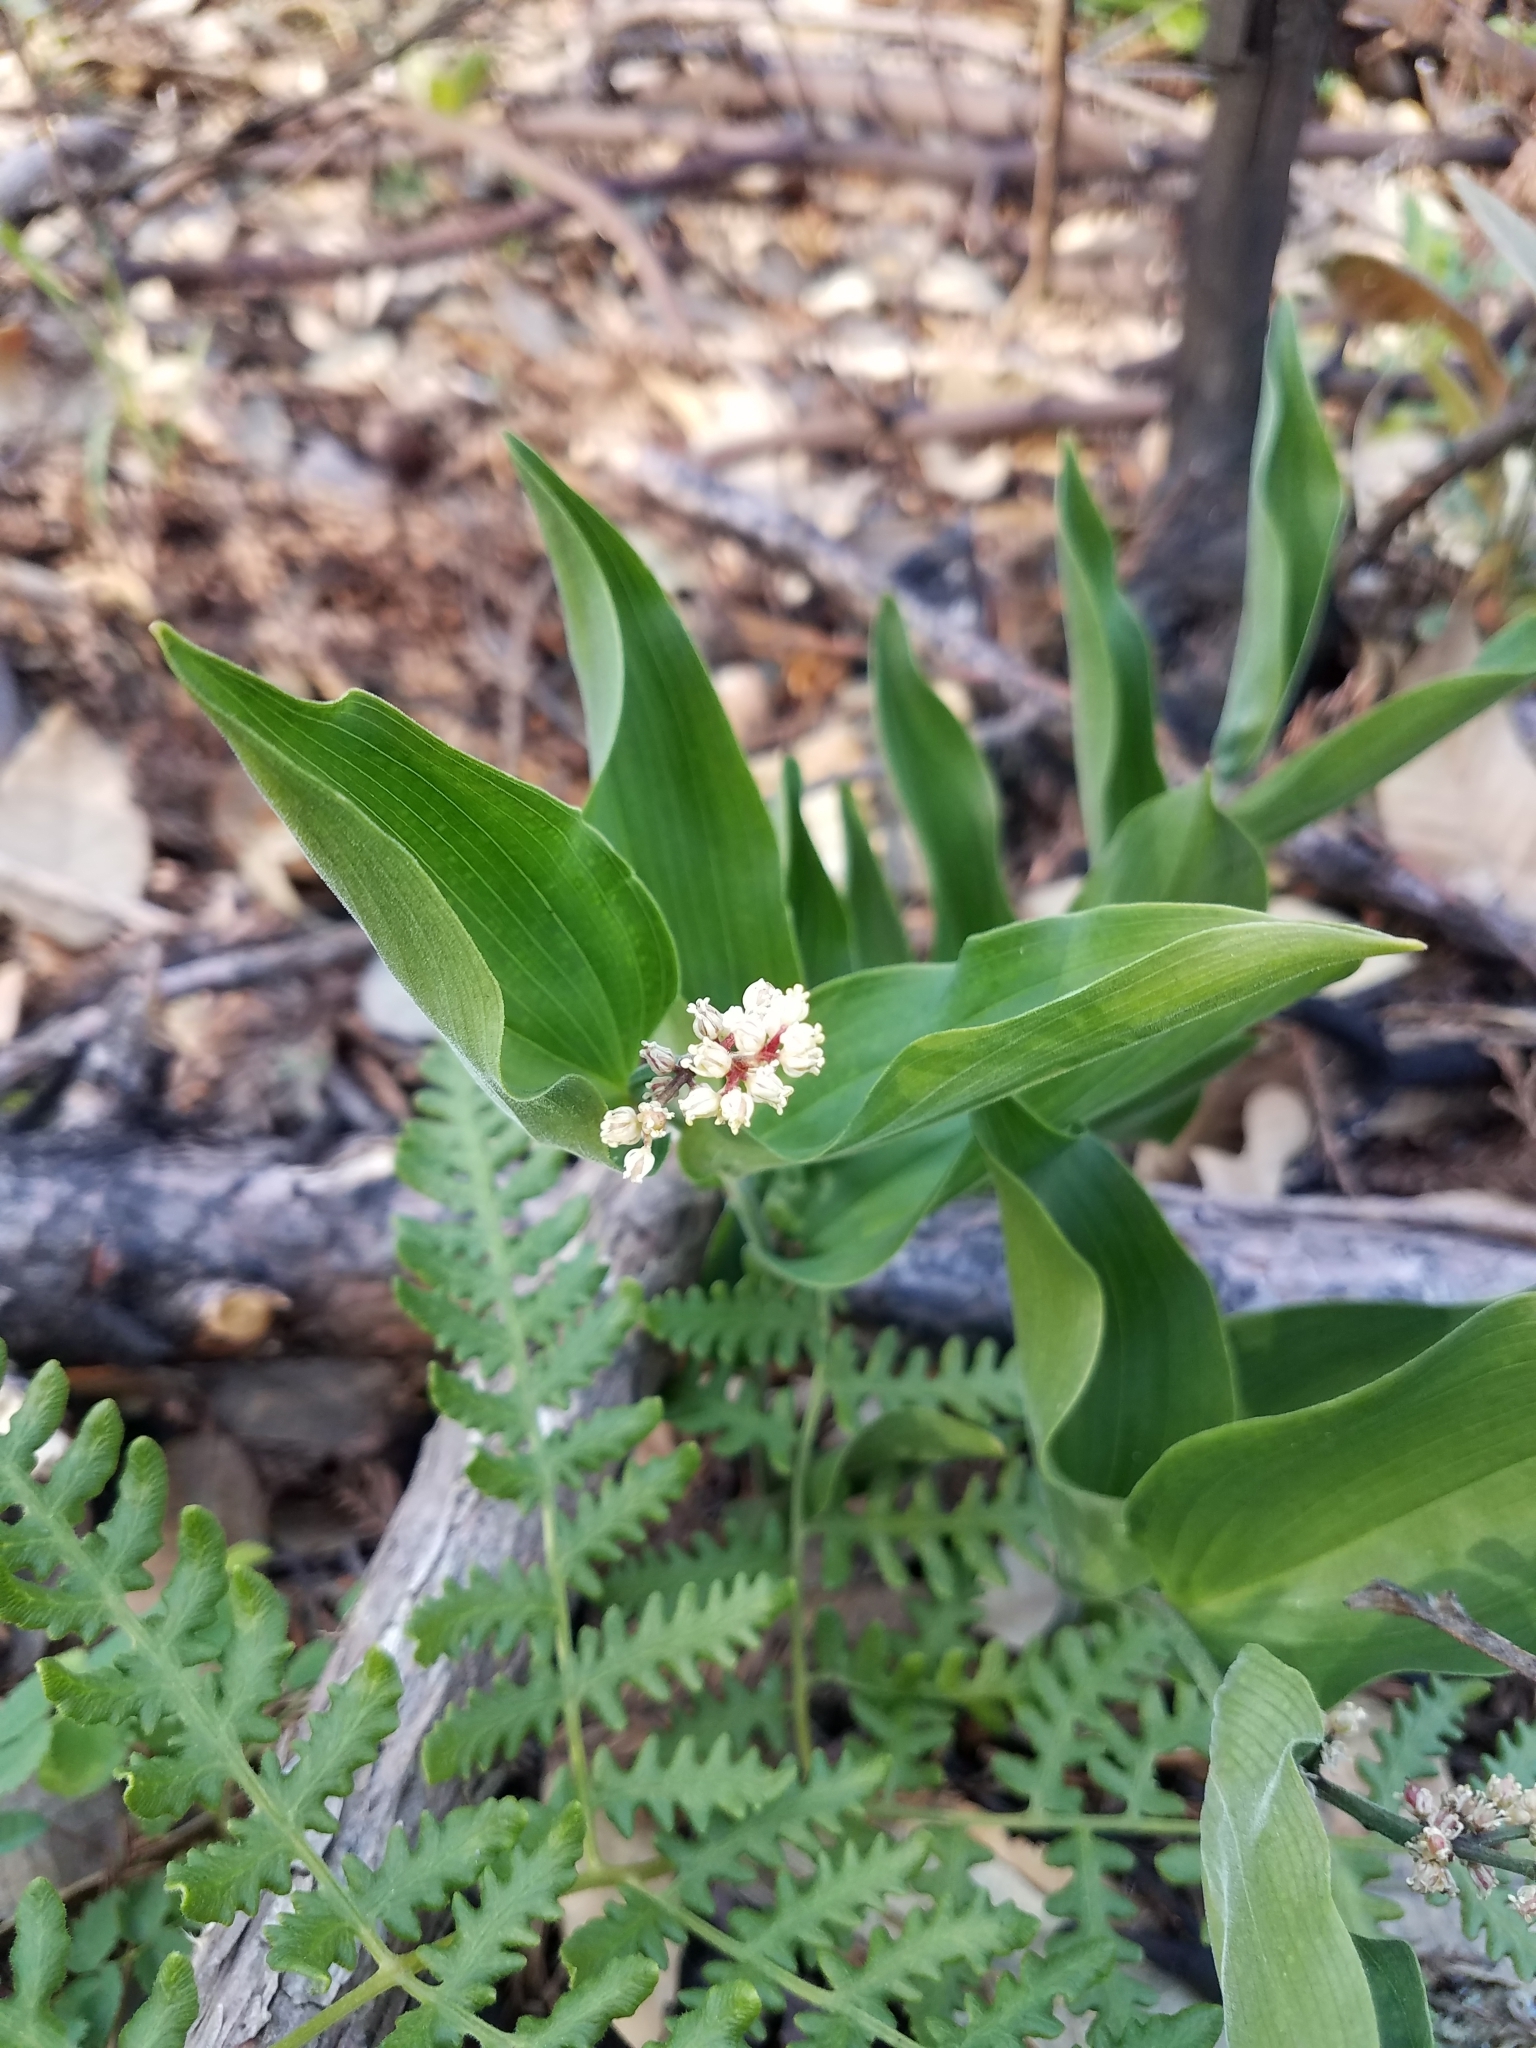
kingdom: Plantae
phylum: Tracheophyta
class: Liliopsida
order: Asparagales
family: Asparagaceae
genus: Maianthemum
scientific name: Maianthemum racemosum
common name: False spikenard
